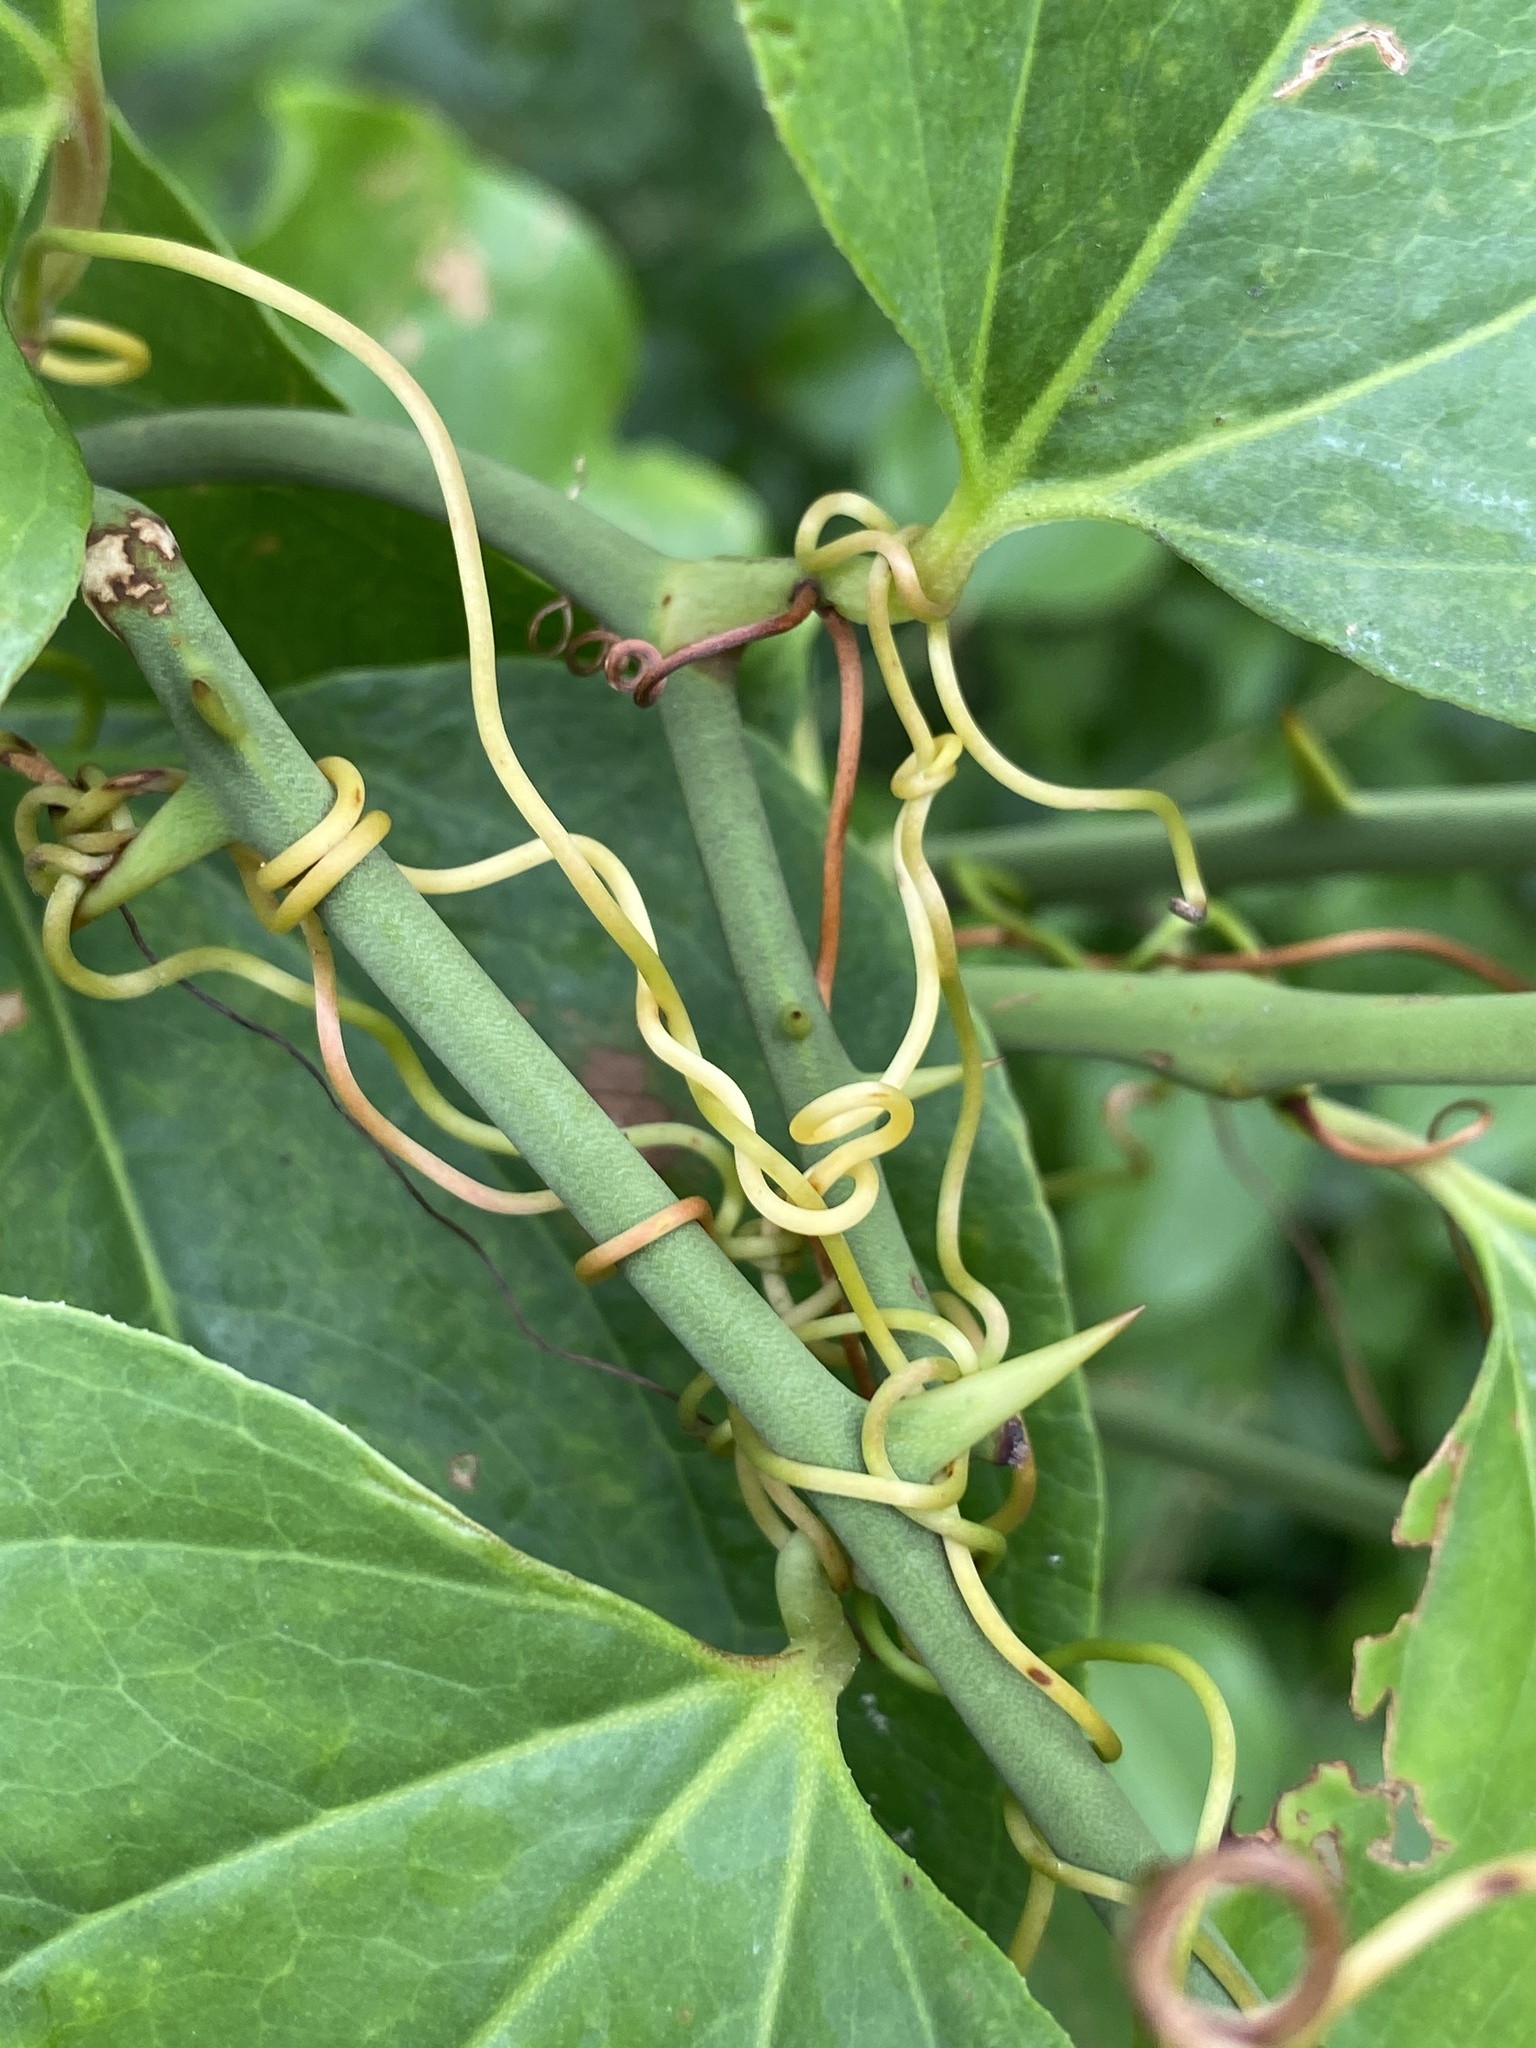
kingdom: Plantae
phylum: Tracheophyta
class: Liliopsida
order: Liliales
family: Smilacaceae
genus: Smilax
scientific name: Smilax rotundifolia
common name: Bullbriar
